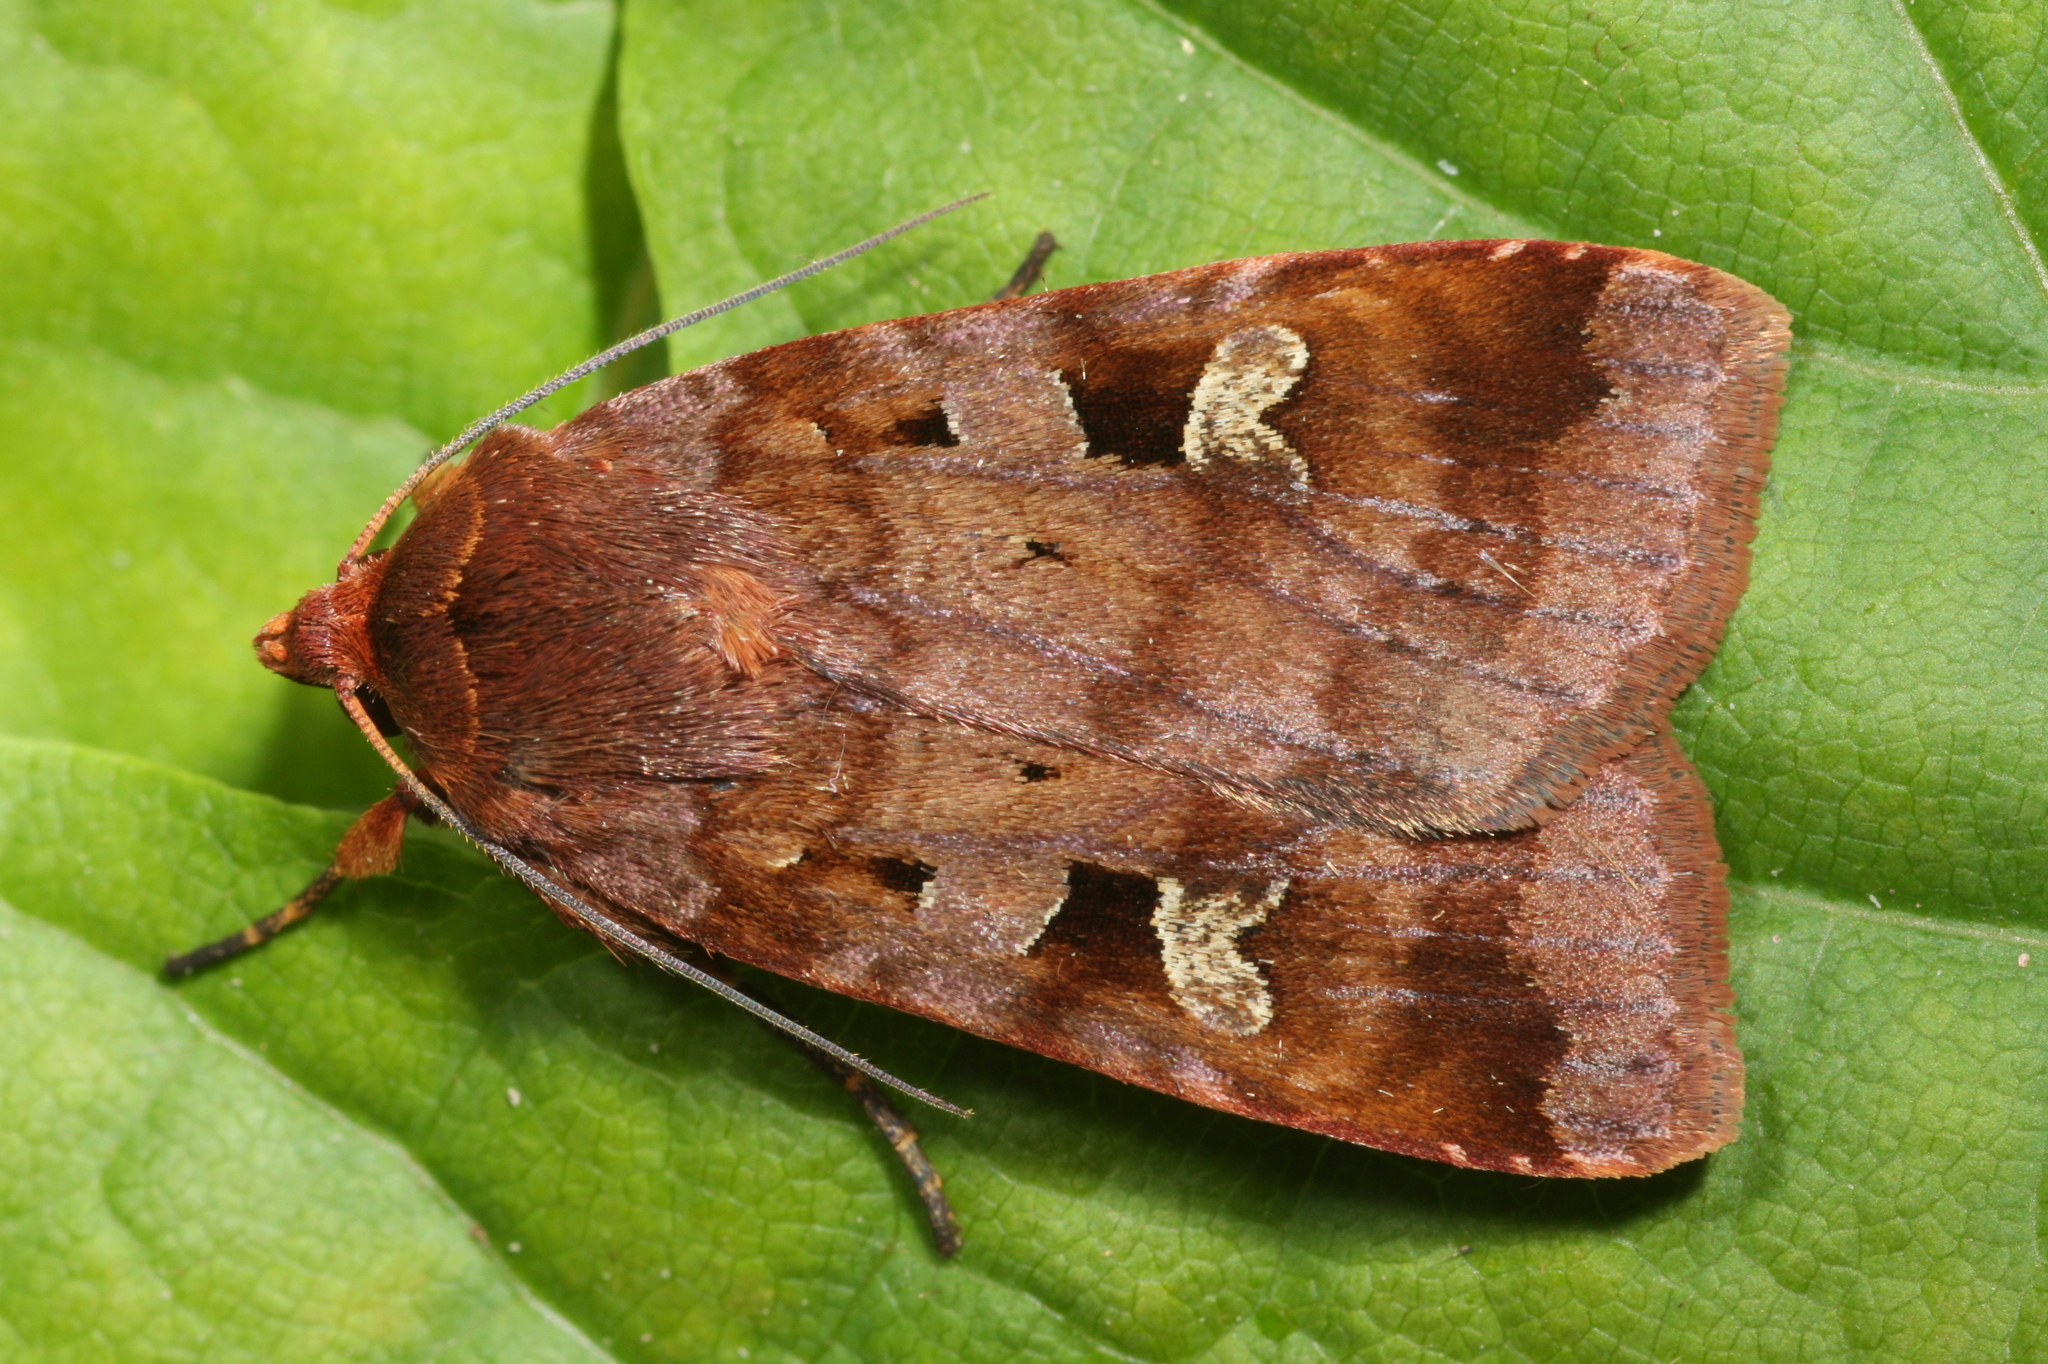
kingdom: Animalia
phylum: Arthropoda
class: Insecta
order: Lepidoptera
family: Noctuidae
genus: Diarsia
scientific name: Diarsia brunnea
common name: Purple clay
